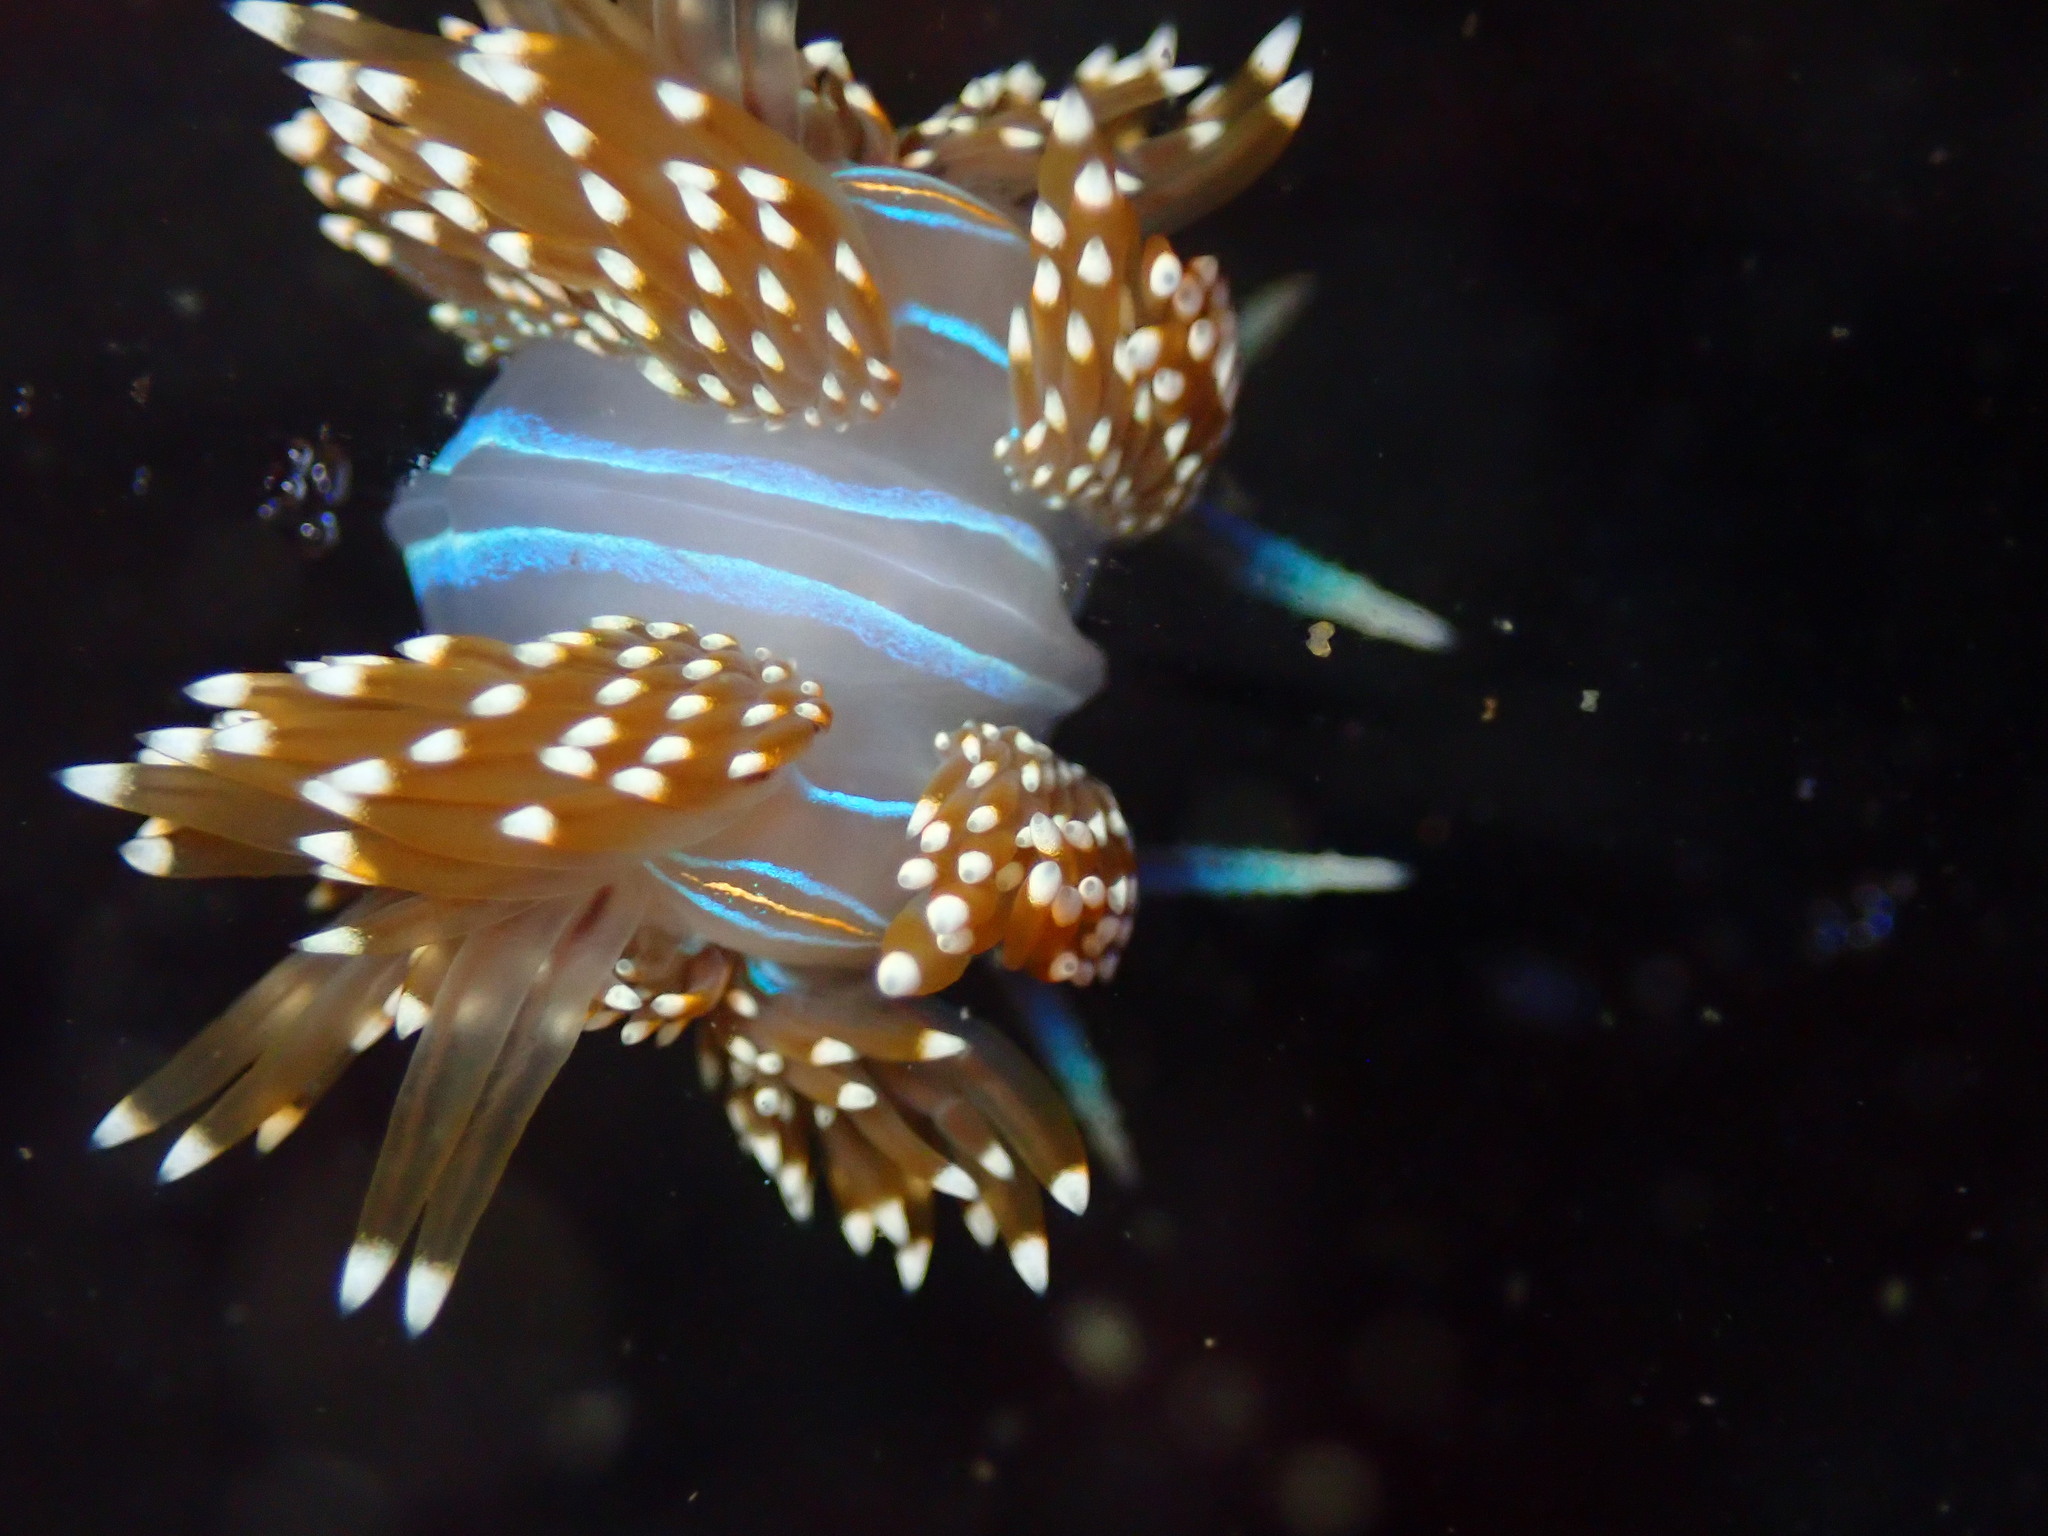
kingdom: Animalia
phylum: Mollusca
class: Gastropoda
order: Nudibranchia
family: Myrrhinidae
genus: Hermissenda
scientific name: Hermissenda opalescens
